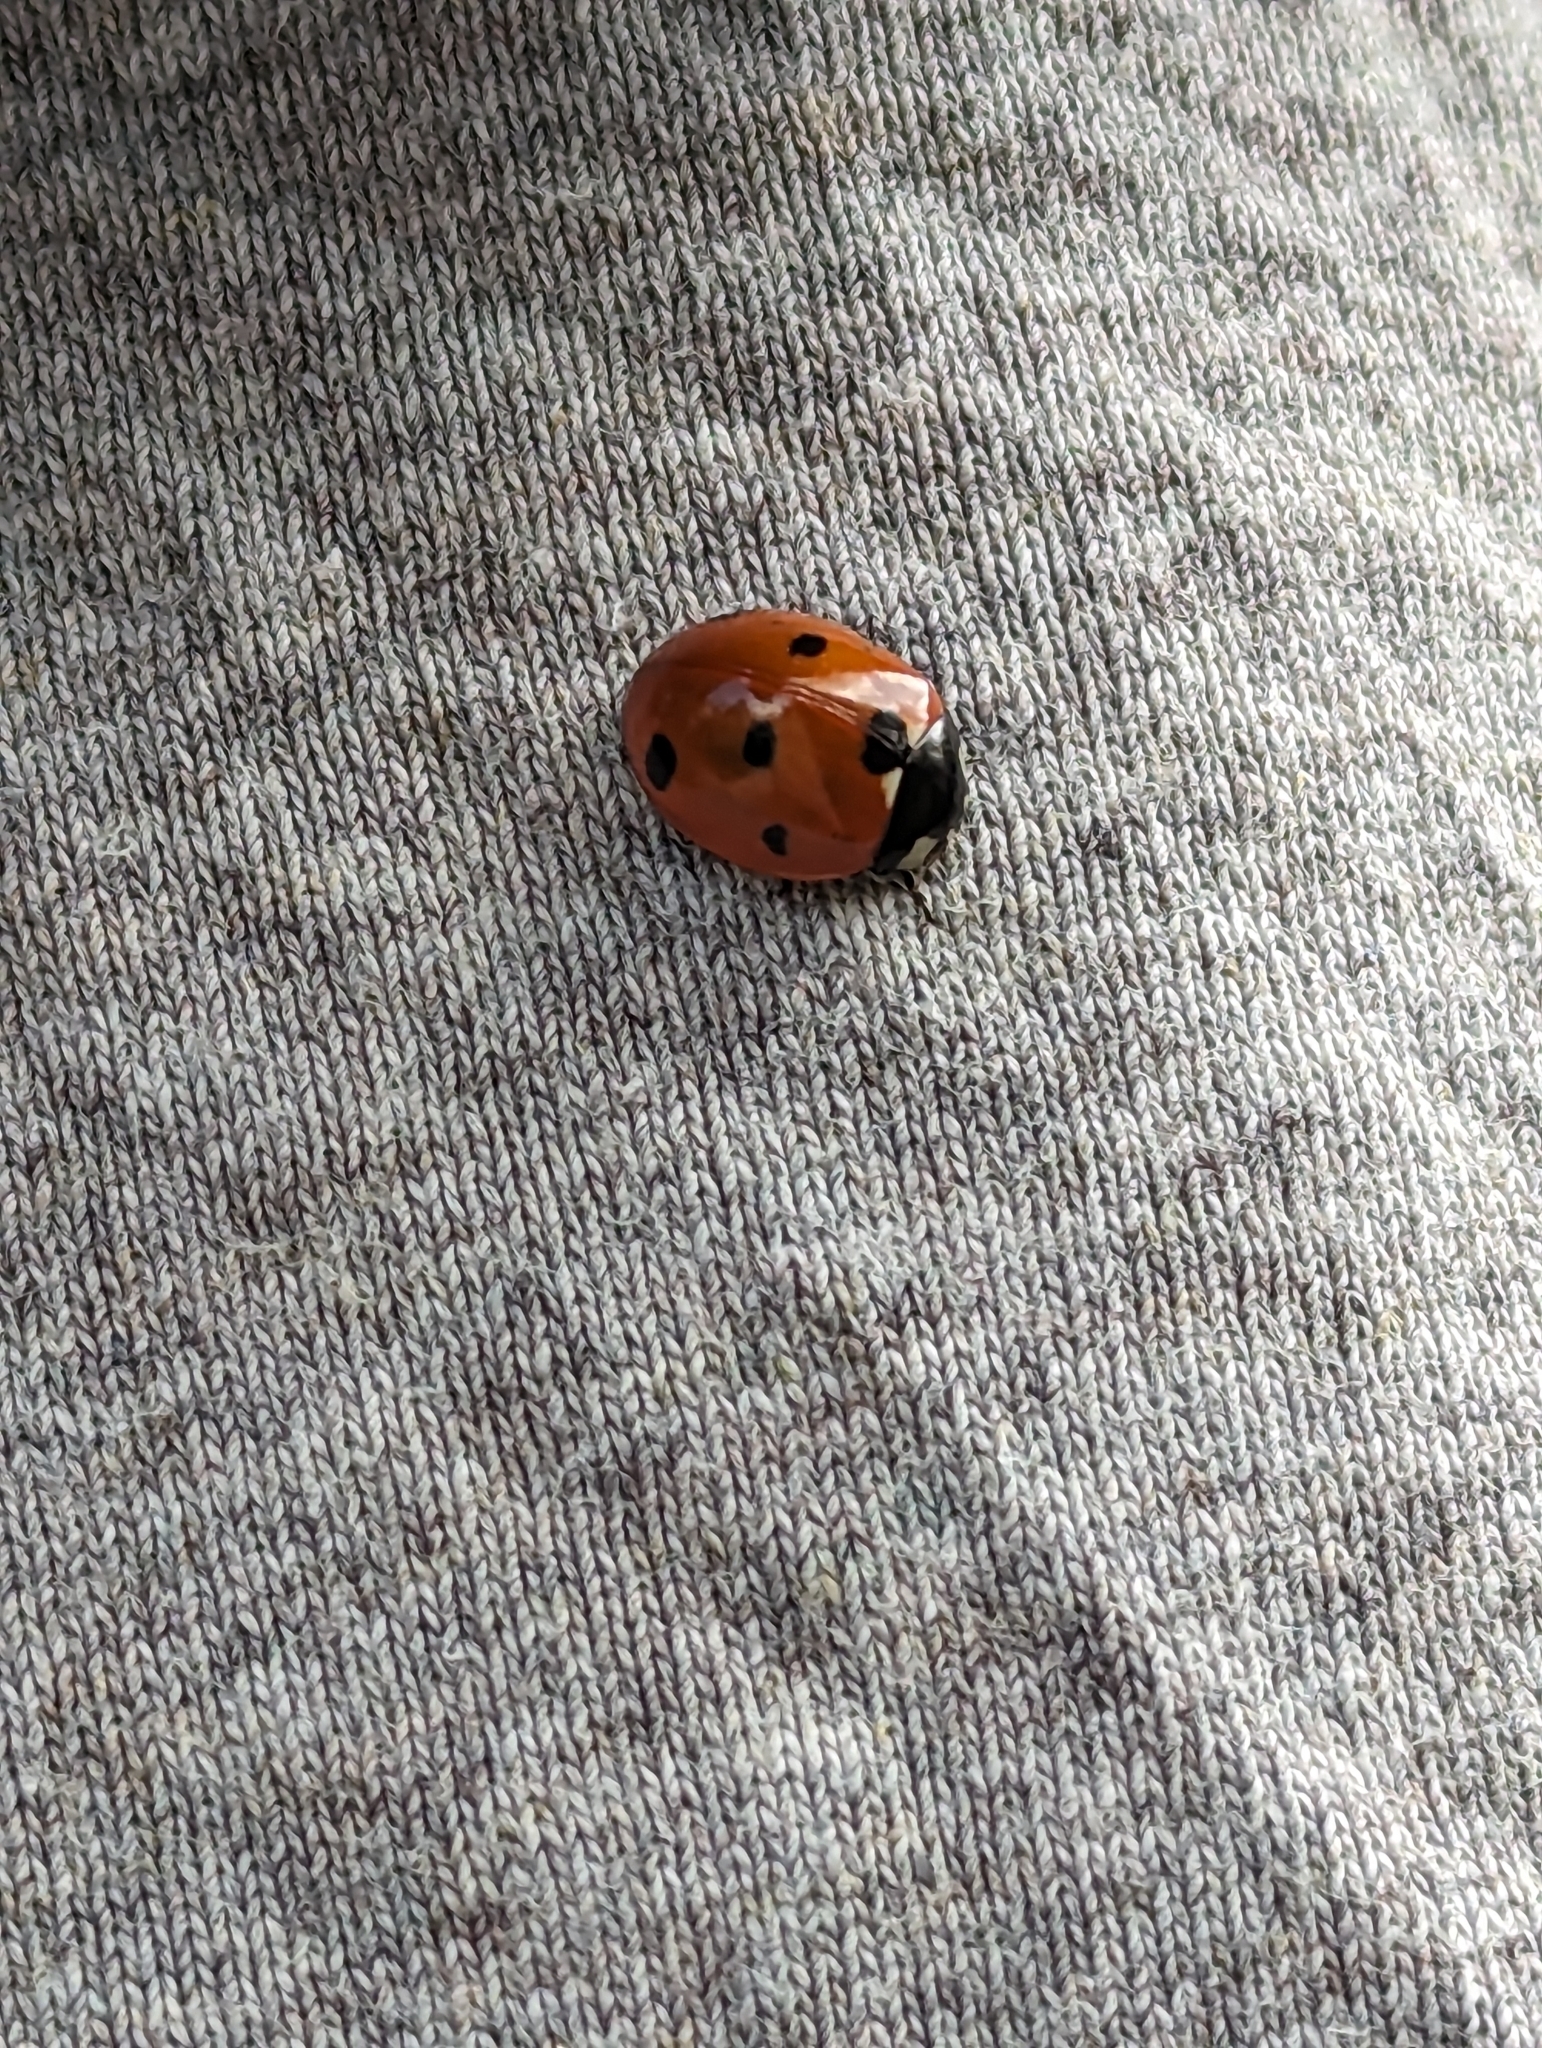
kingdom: Animalia
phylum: Arthropoda
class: Insecta
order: Coleoptera
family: Coccinellidae
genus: Coccinella
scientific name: Coccinella septempunctata
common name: Sevenspotted lady beetle
